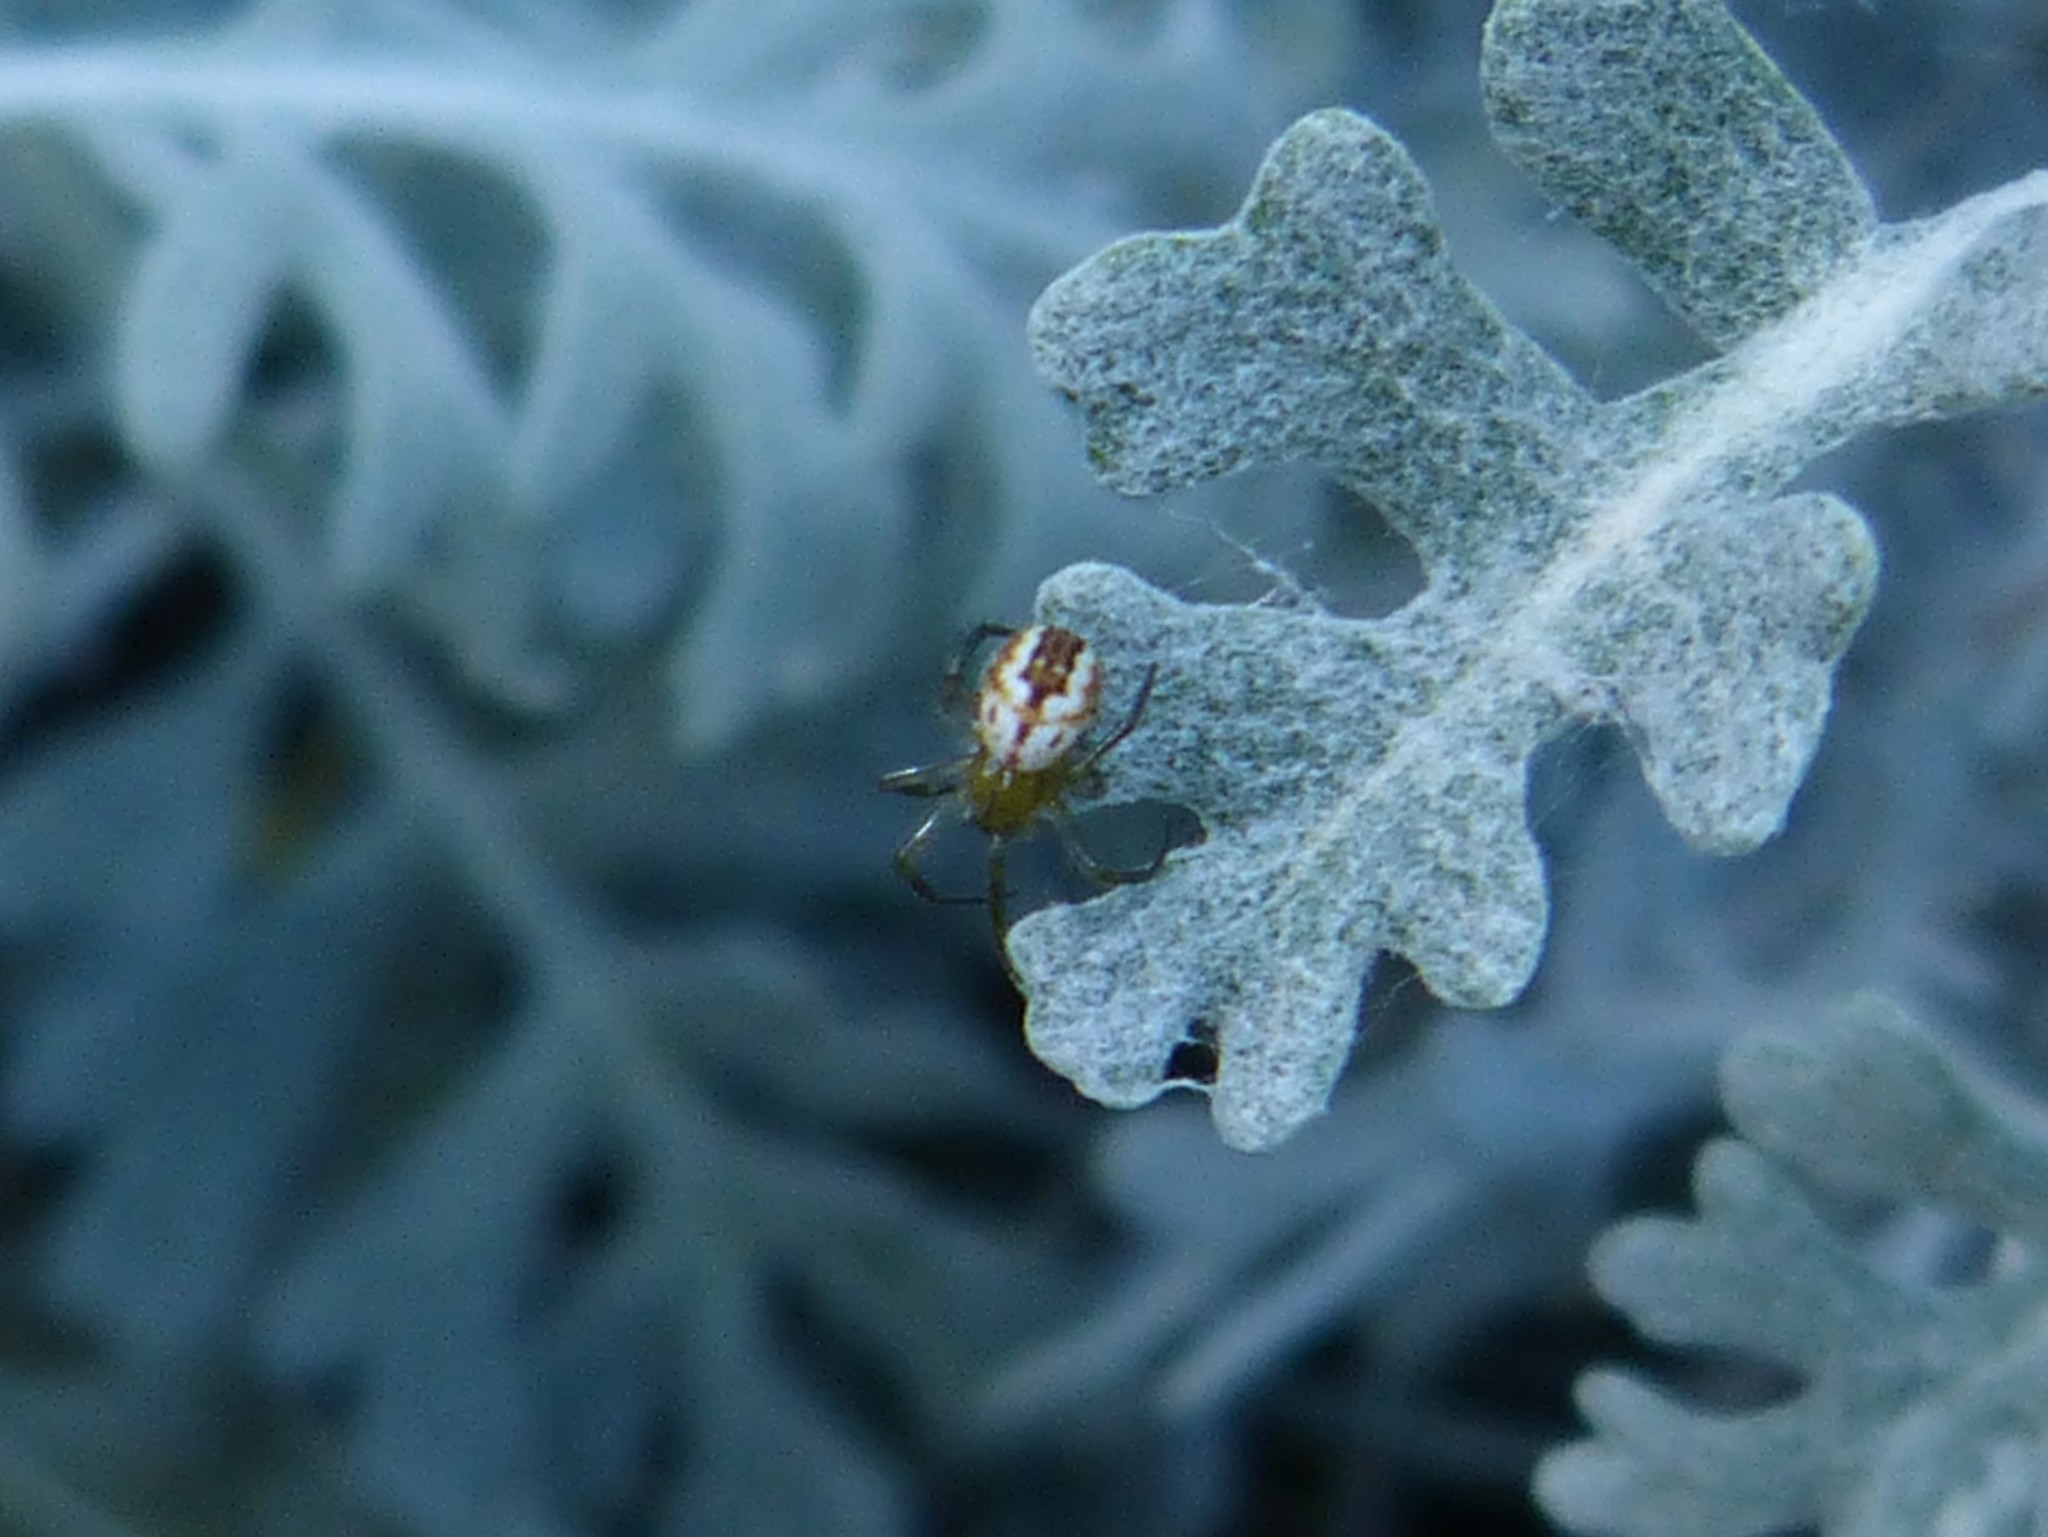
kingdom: Animalia
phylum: Arthropoda
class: Arachnida
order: Araneae
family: Araneidae
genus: Mangora
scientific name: Mangora acalypha
